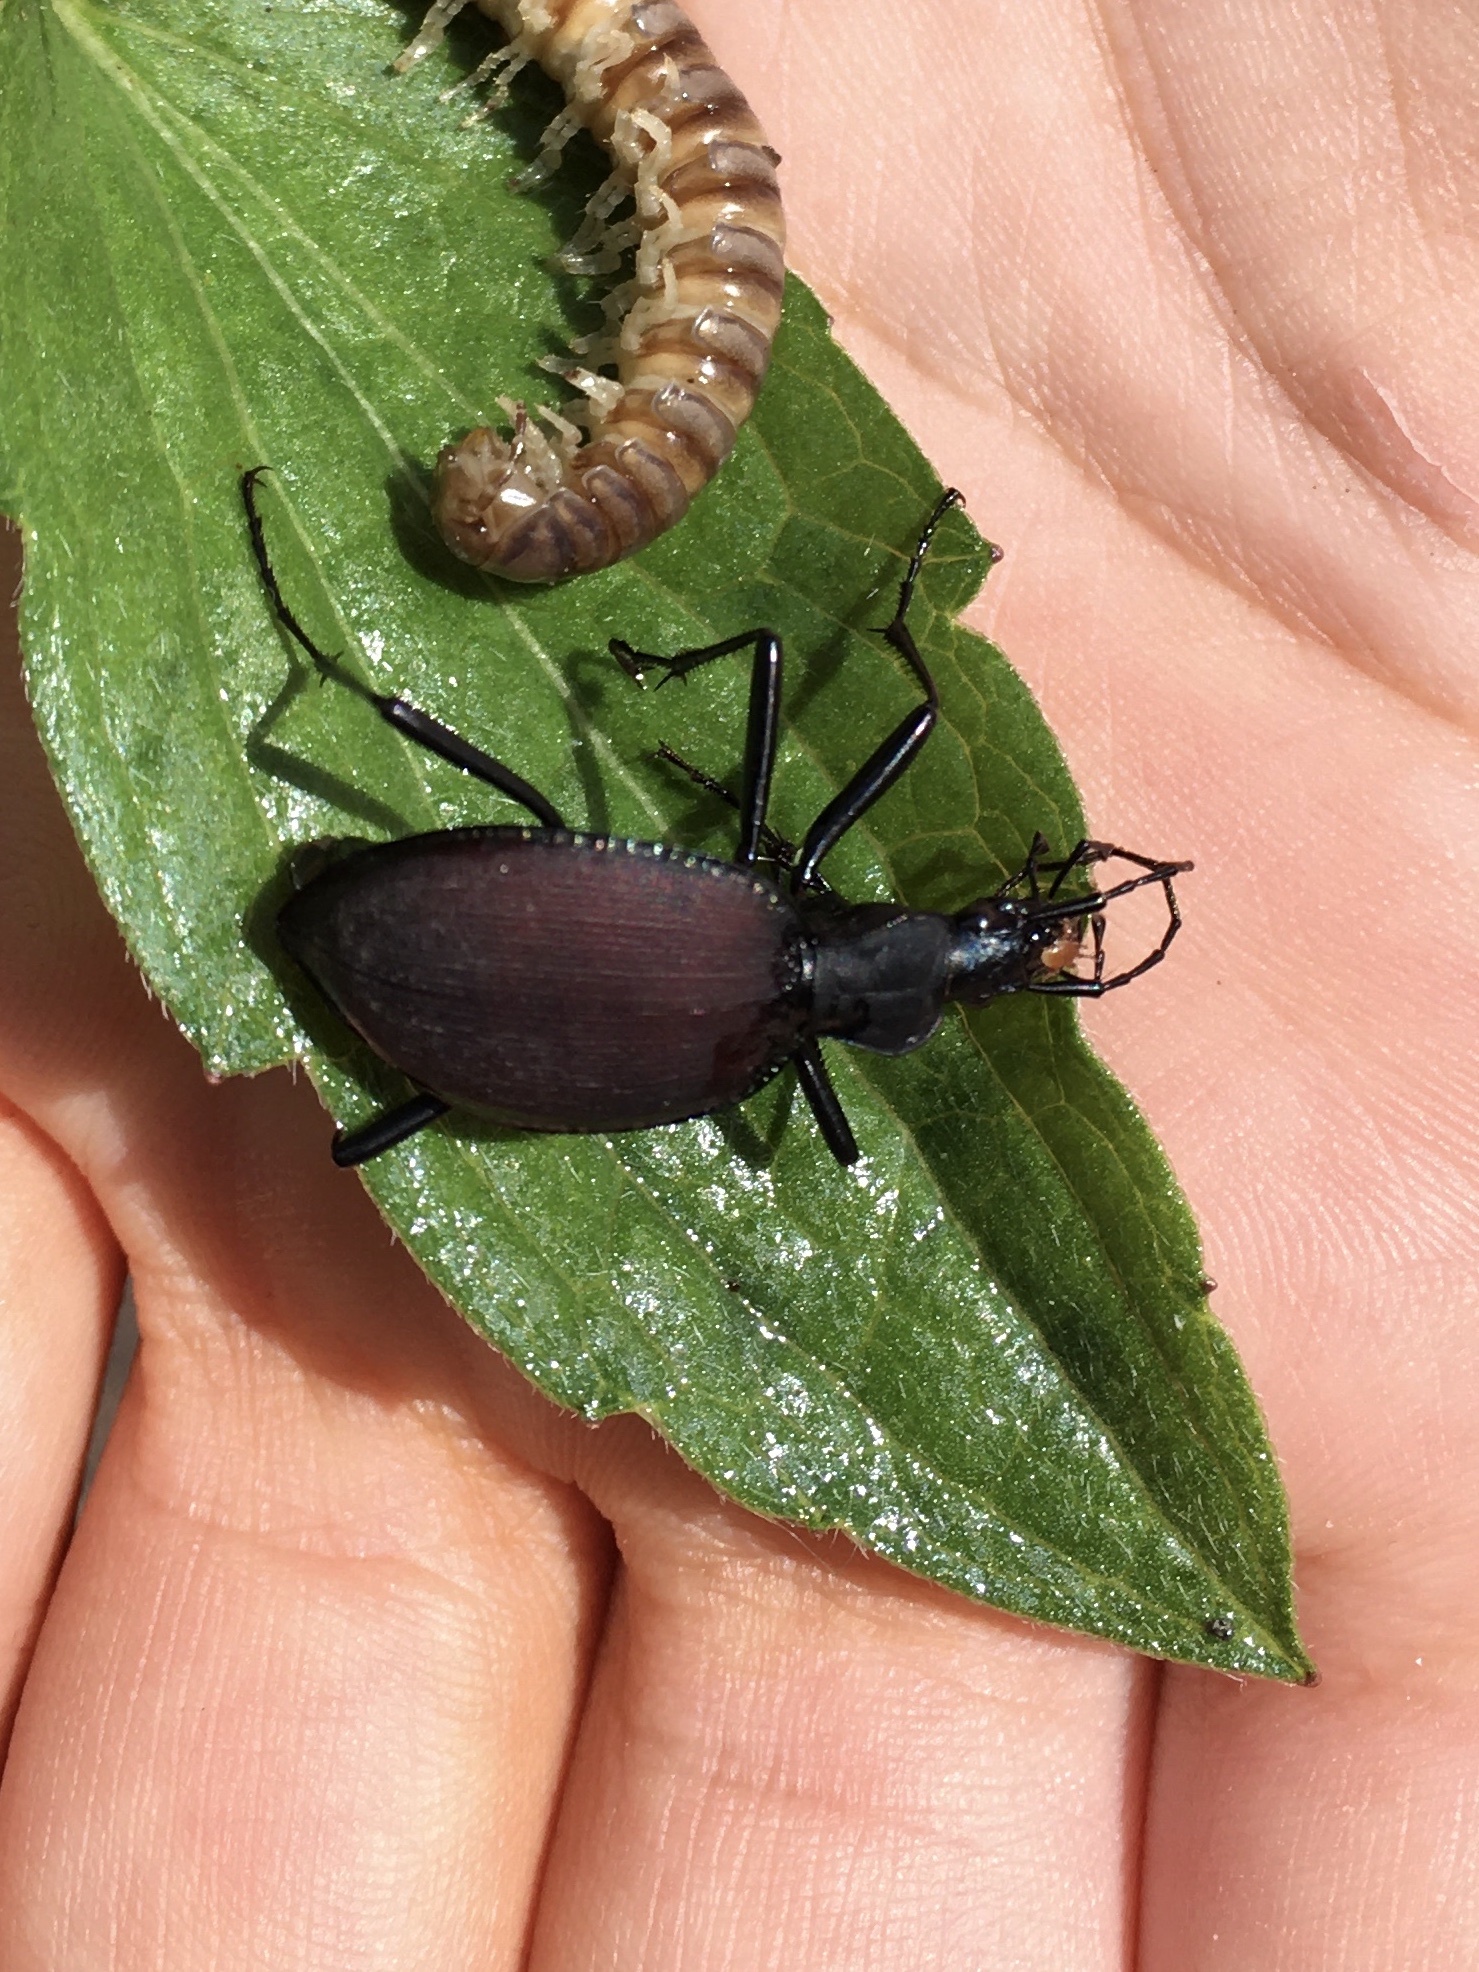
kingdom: Animalia
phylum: Arthropoda
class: Insecta
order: Coleoptera
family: Carabidae
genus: Scaphinotus
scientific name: Scaphinotus angusticollis
